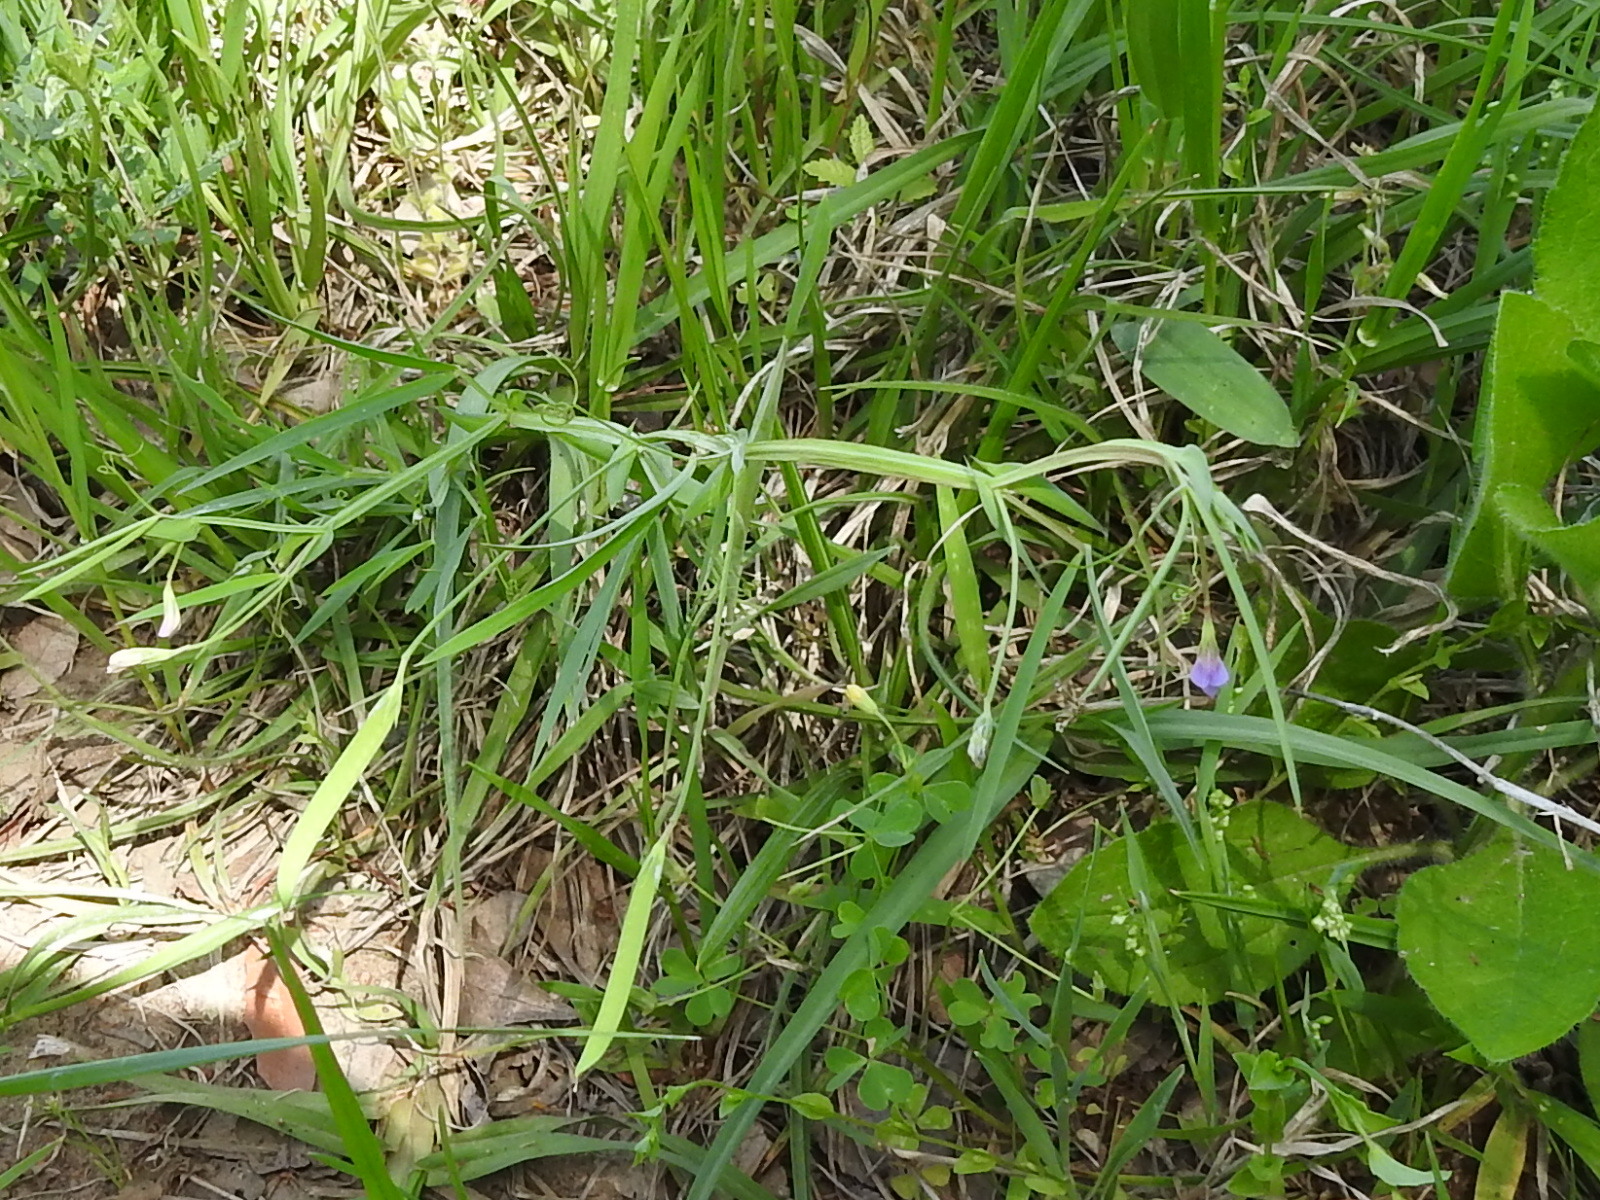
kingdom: Plantae
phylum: Tracheophyta
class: Magnoliopsida
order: Fabales
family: Fabaceae
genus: Lathyrus
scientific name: Lathyrus pusillus
